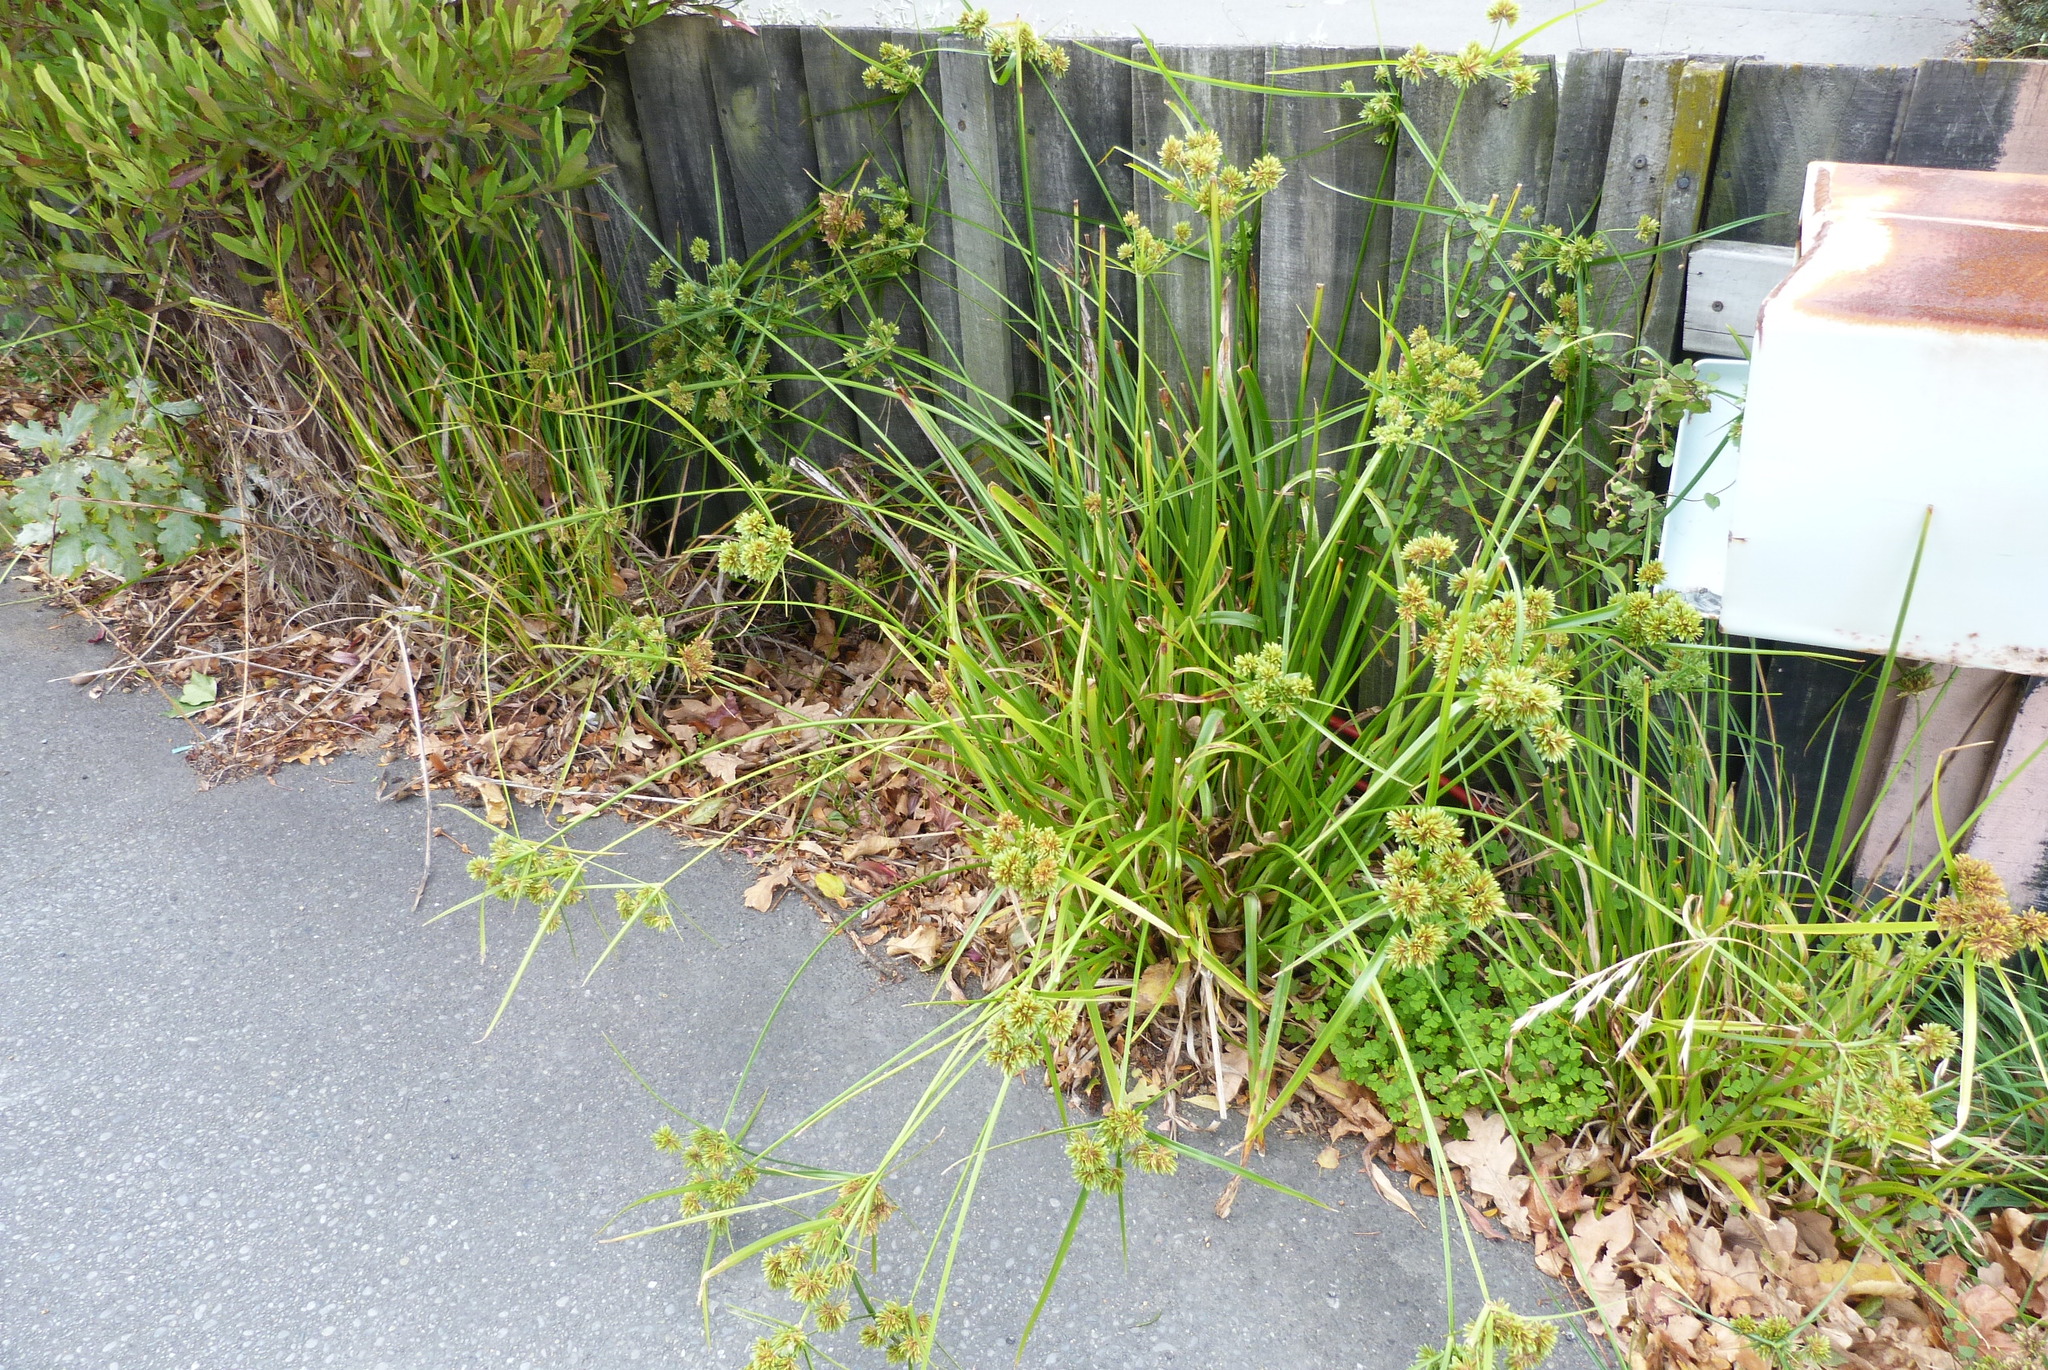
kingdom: Plantae
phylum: Tracheophyta
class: Liliopsida
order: Poales
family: Cyperaceae
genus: Cyperus
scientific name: Cyperus eragrostis
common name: Tall flatsedge
